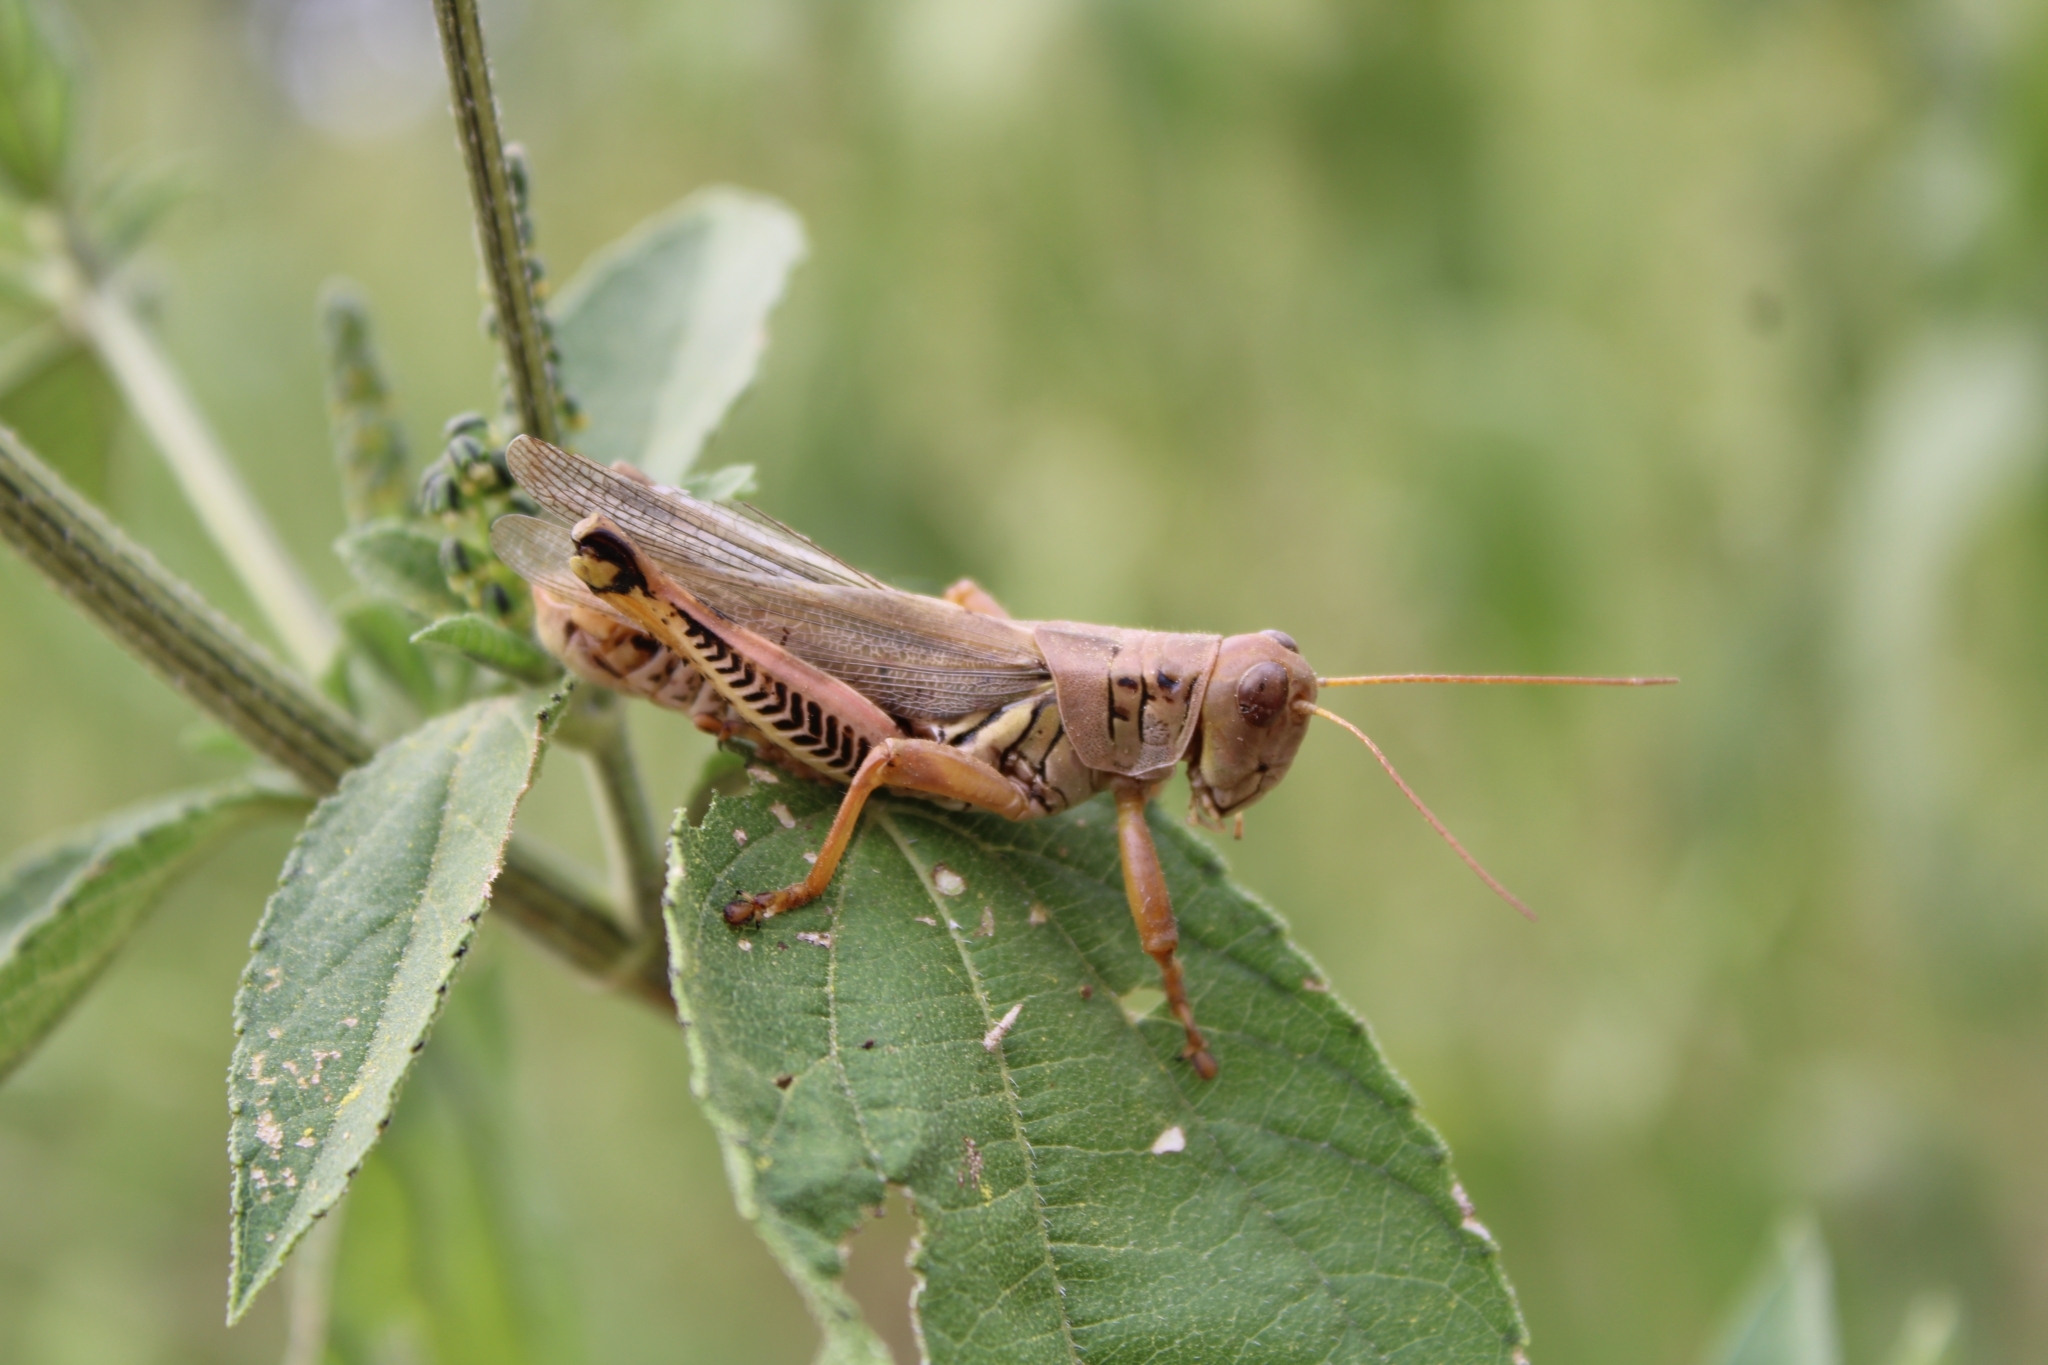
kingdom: Animalia
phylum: Arthropoda
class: Insecta
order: Orthoptera
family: Acrididae
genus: Melanoplus
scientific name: Melanoplus differentialis
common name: Differential grasshopper
